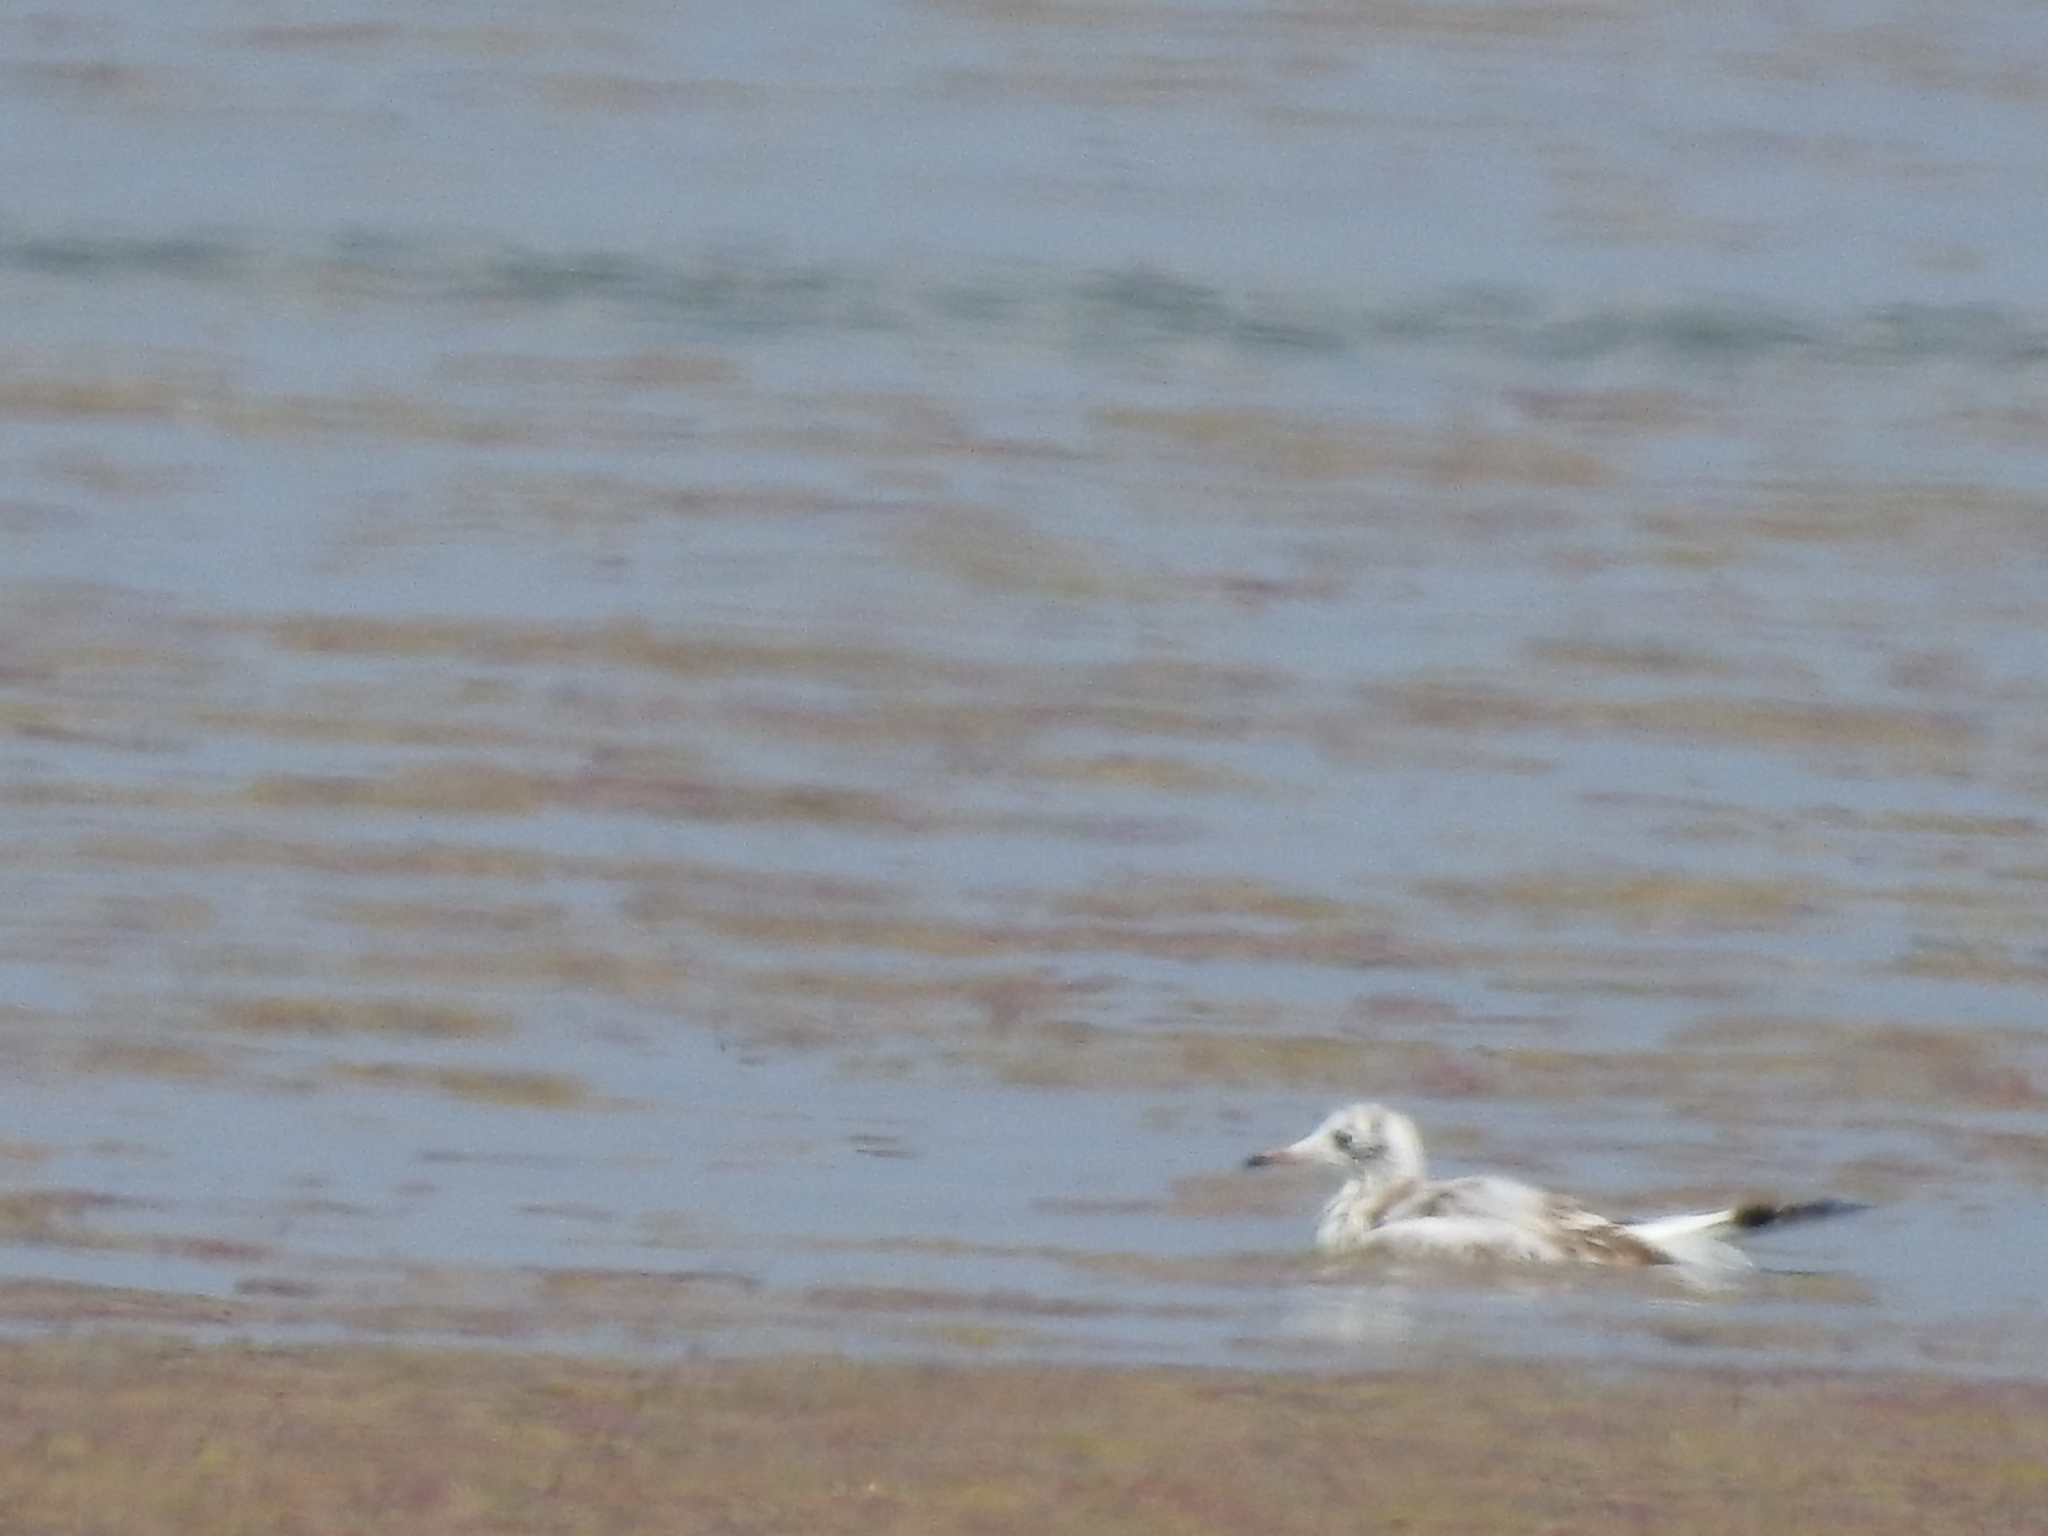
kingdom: Animalia
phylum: Chordata
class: Aves
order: Charadriiformes
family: Laridae
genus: Chroicocephalus
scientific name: Chroicocephalus ridibundus
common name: Black-headed gull
